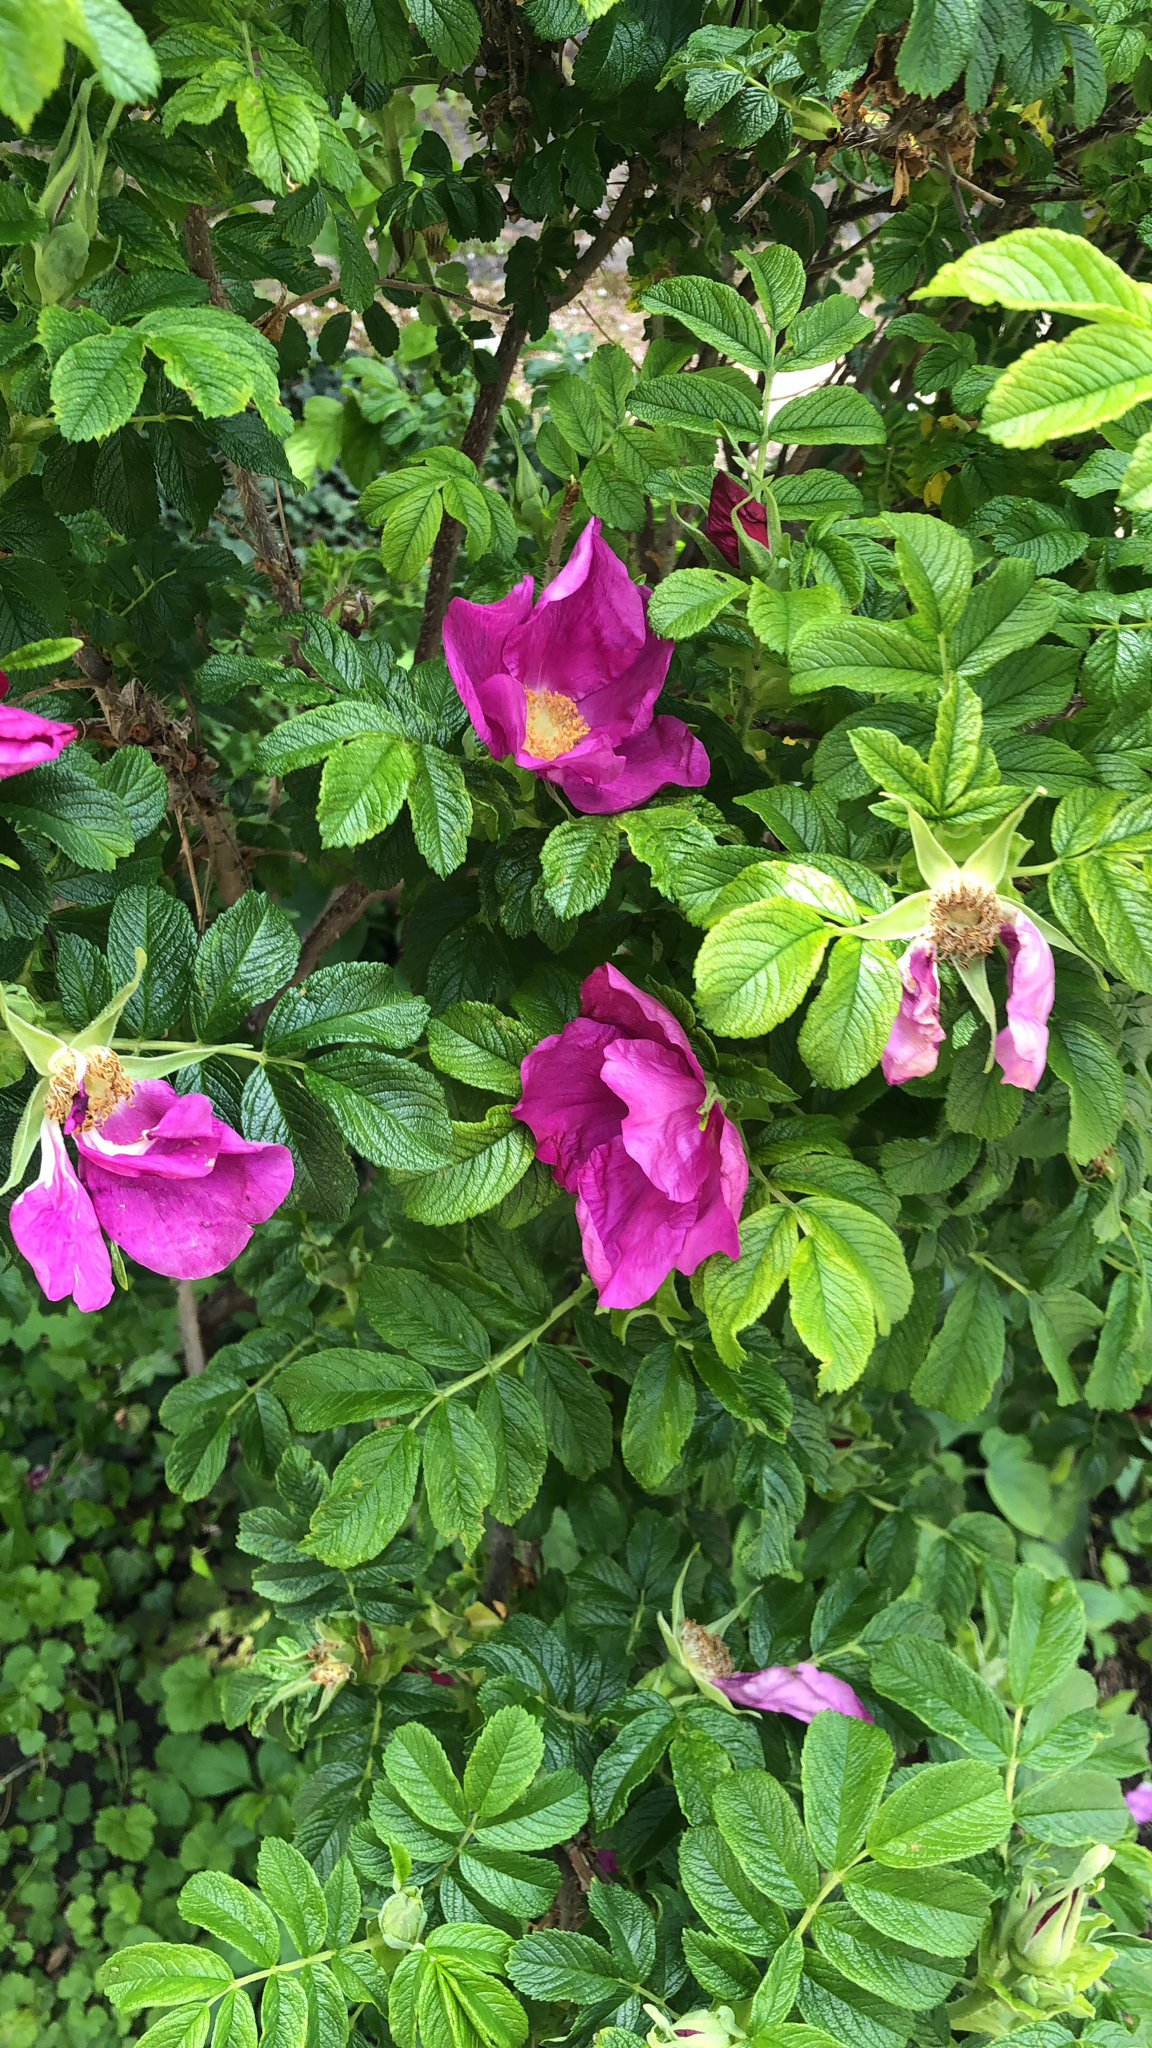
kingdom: Plantae
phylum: Tracheophyta
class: Magnoliopsida
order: Rosales
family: Rosaceae
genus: Rosa
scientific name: Rosa rugosa
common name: Japanese rose
